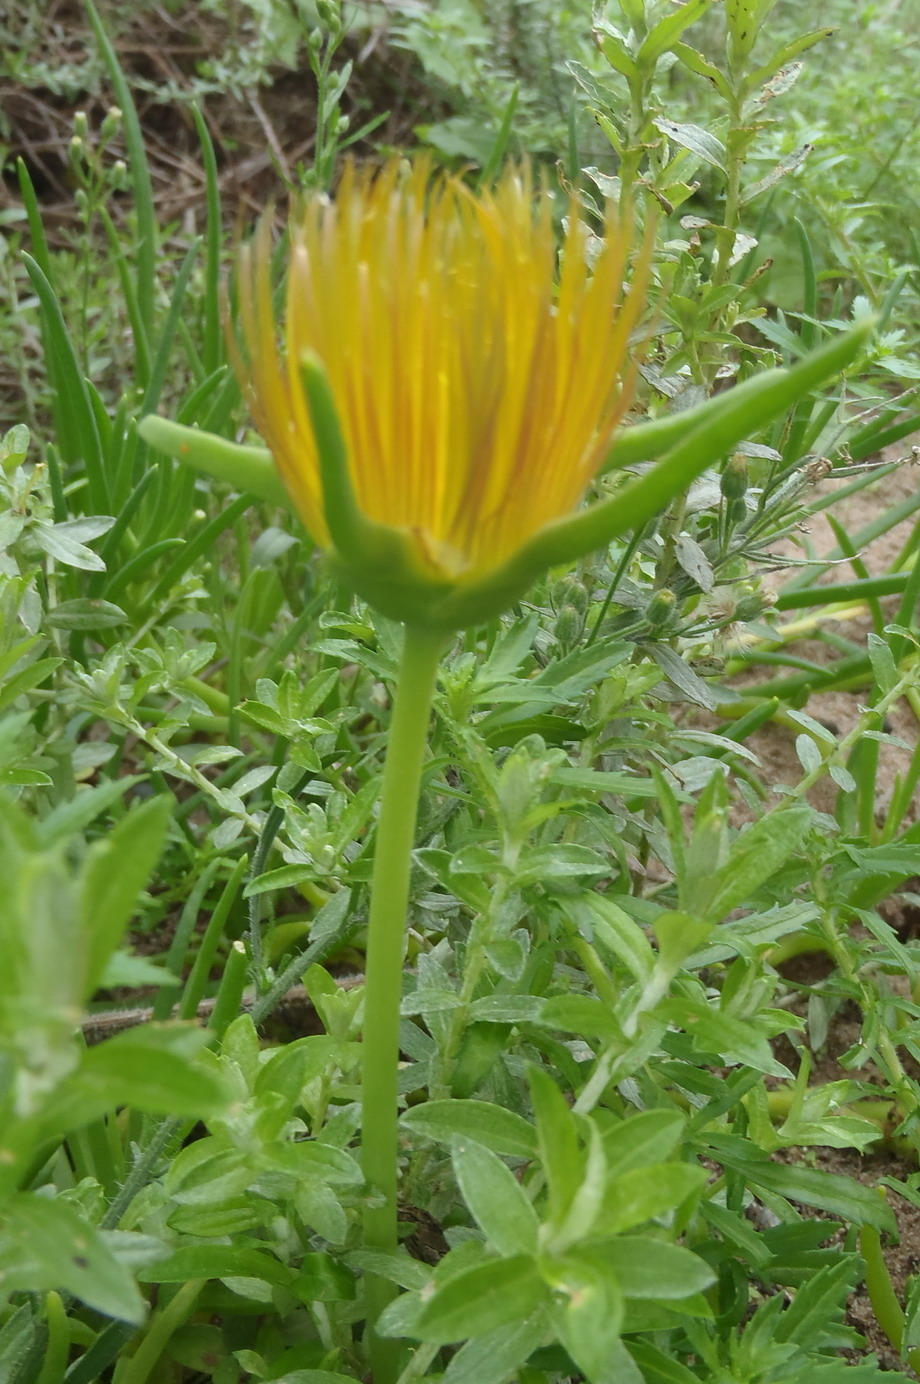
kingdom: Plantae
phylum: Tracheophyta
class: Magnoliopsida
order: Caryophyllales
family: Aizoaceae
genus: Conicosia
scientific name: Conicosia pugioniformis
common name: Narrow-leaved iceplant
